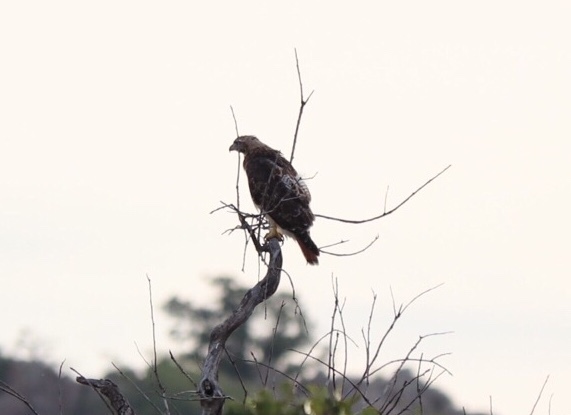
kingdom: Animalia
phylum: Chordata
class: Aves
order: Accipitriformes
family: Accipitridae
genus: Buteo
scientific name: Buteo jamaicensis
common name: Red-tailed hawk
